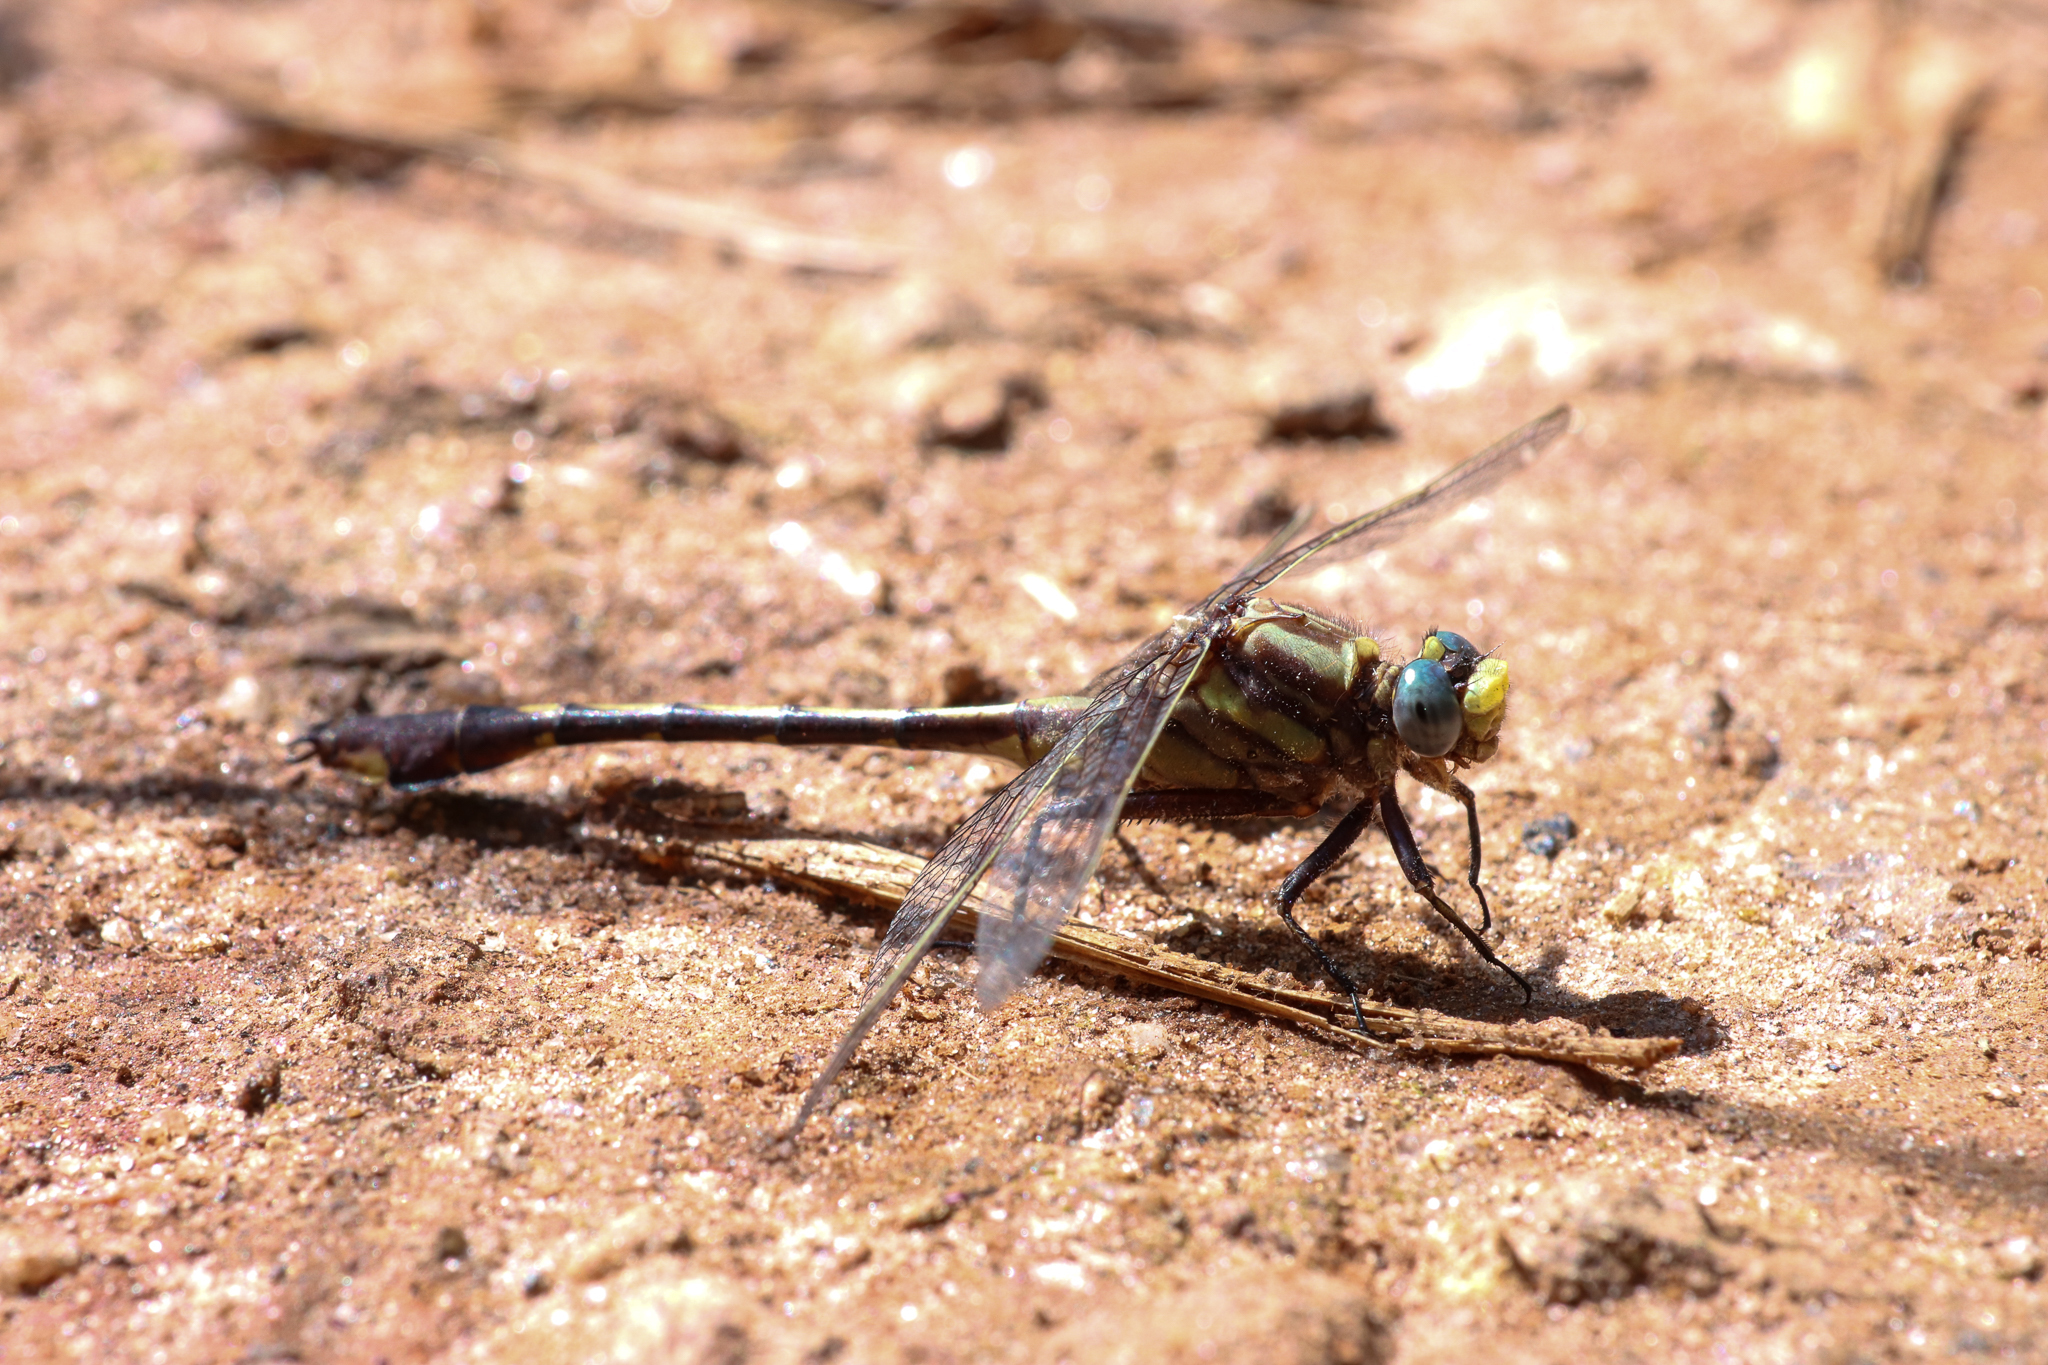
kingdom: Animalia
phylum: Arthropoda
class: Insecta
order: Odonata
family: Gomphidae
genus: Gomphurus
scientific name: Gomphurus hybridus
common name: Cocoa clubtail
